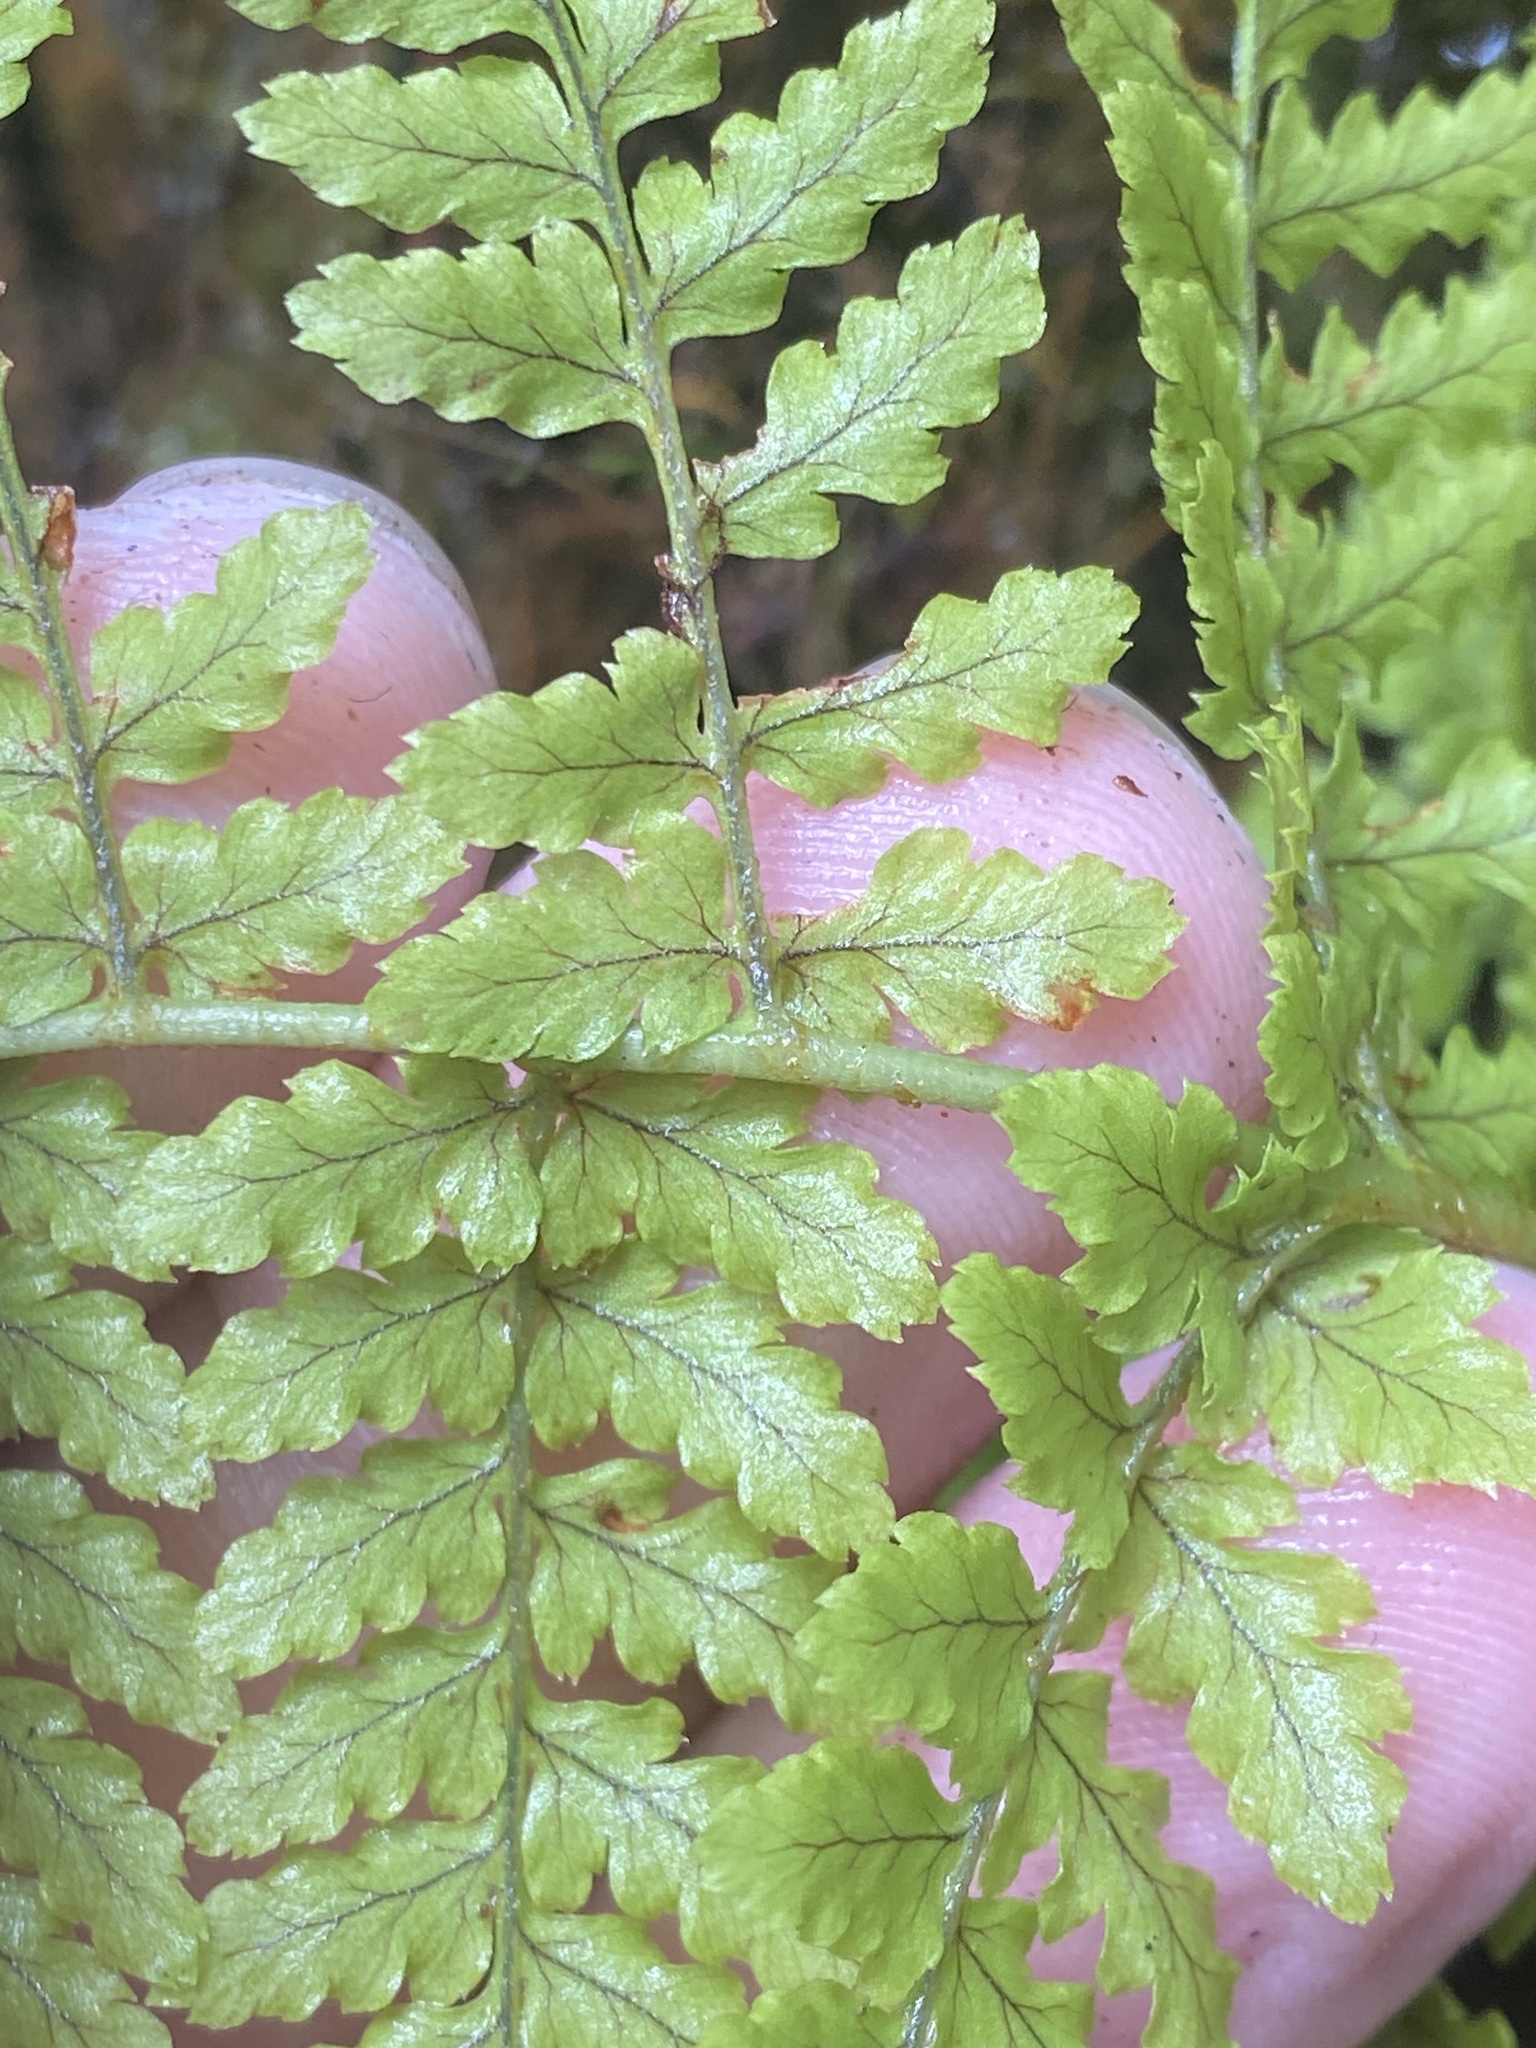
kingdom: Plantae
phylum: Tracheophyta
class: Polypodiopsida
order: Polypodiales
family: Dennstaedtiaceae
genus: Microlepia
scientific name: Microlepia setosa
